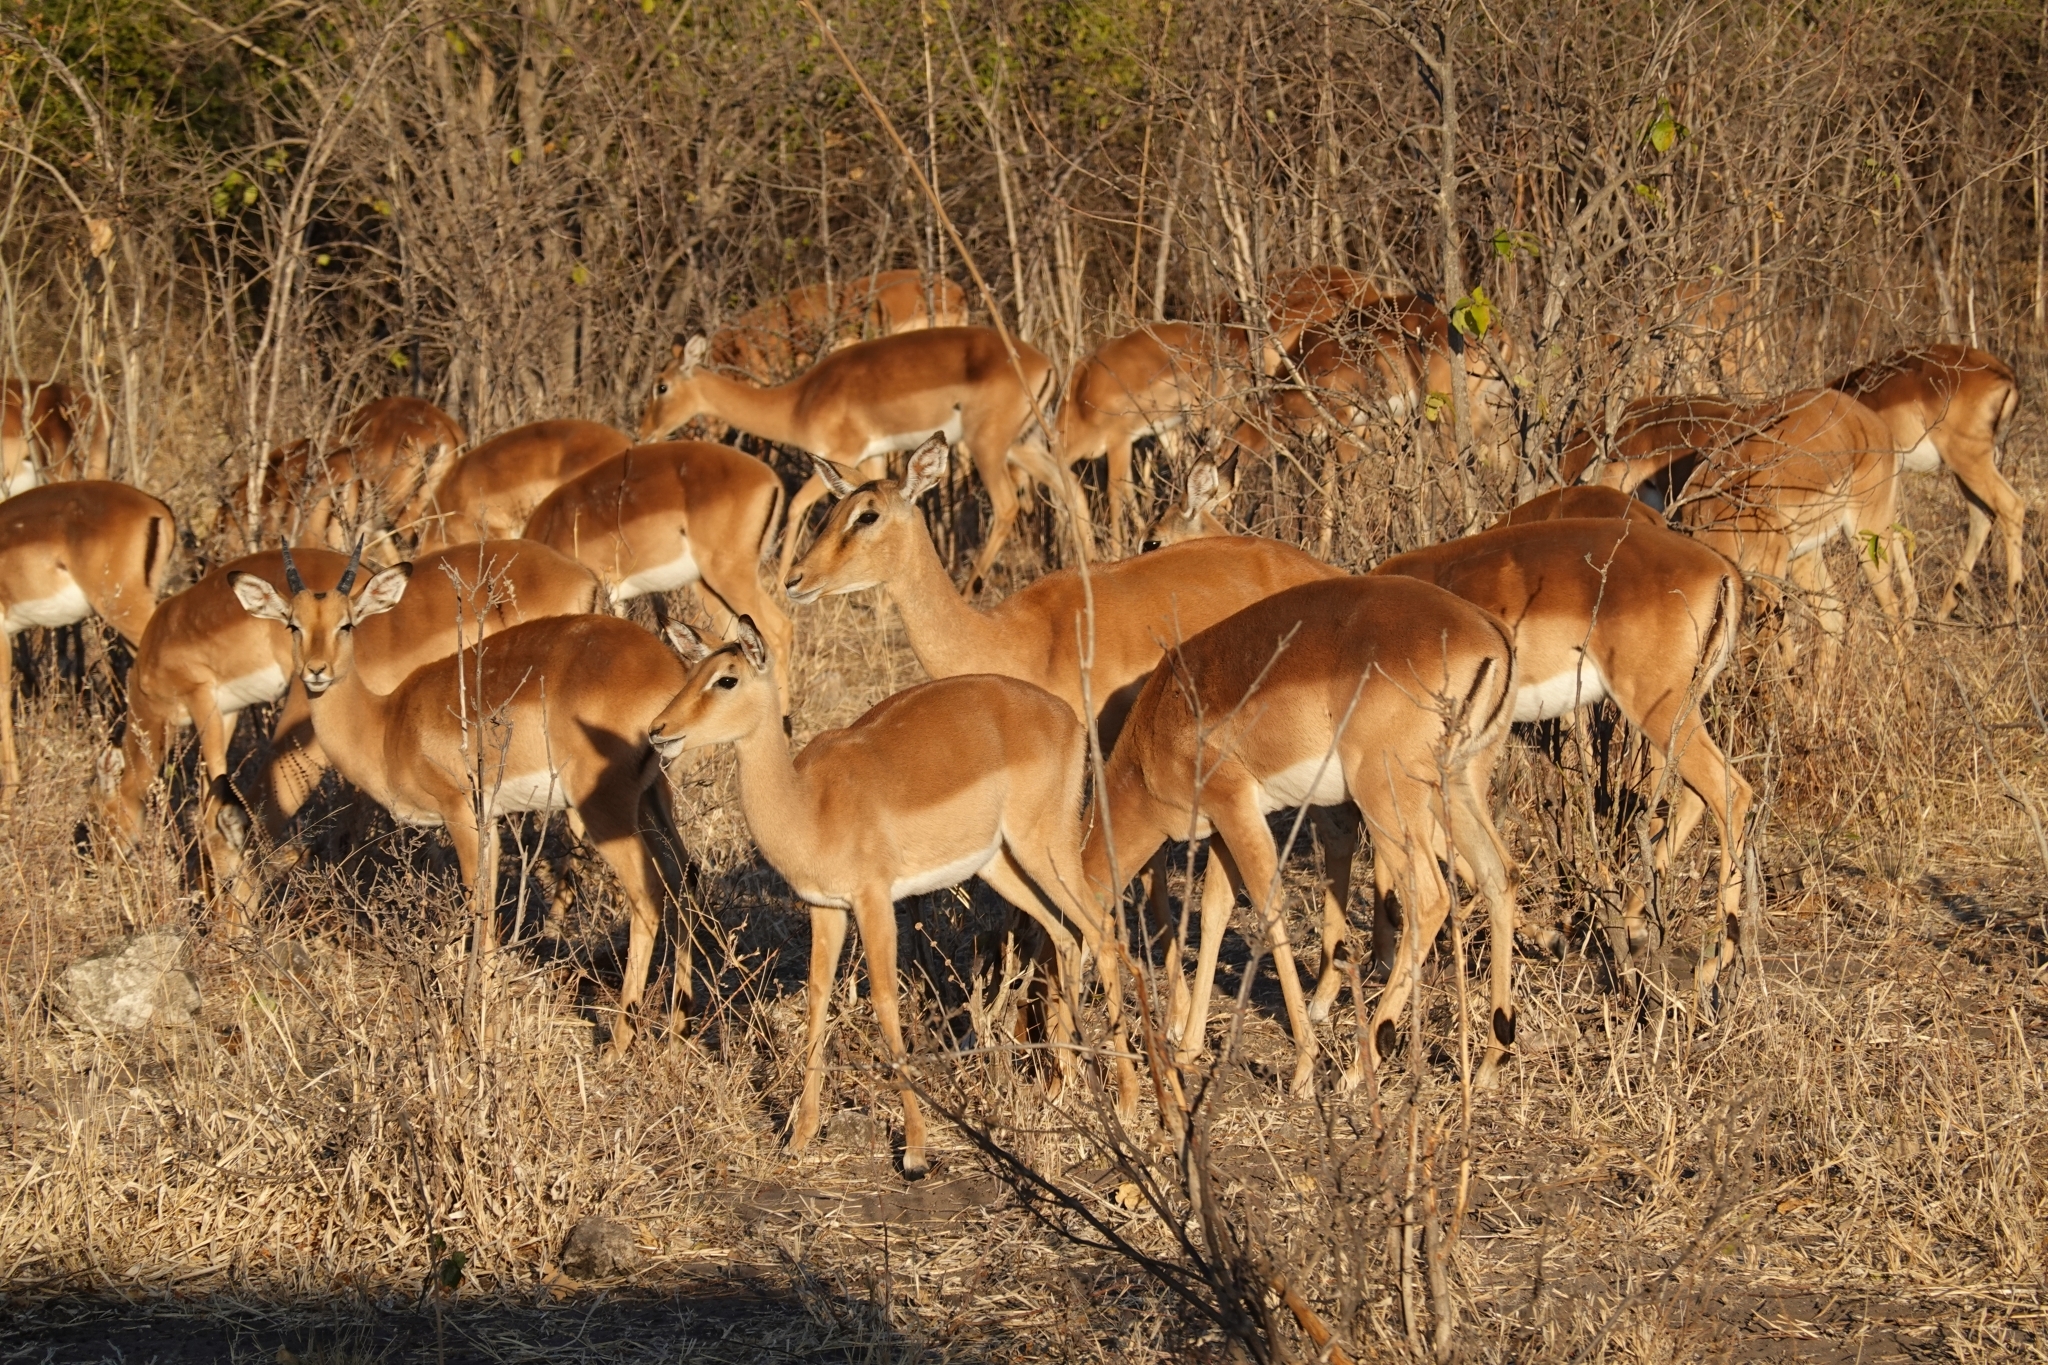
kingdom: Animalia
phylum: Chordata
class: Mammalia
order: Artiodactyla
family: Bovidae
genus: Aepyceros
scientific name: Aepyceros melampus
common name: Impala
